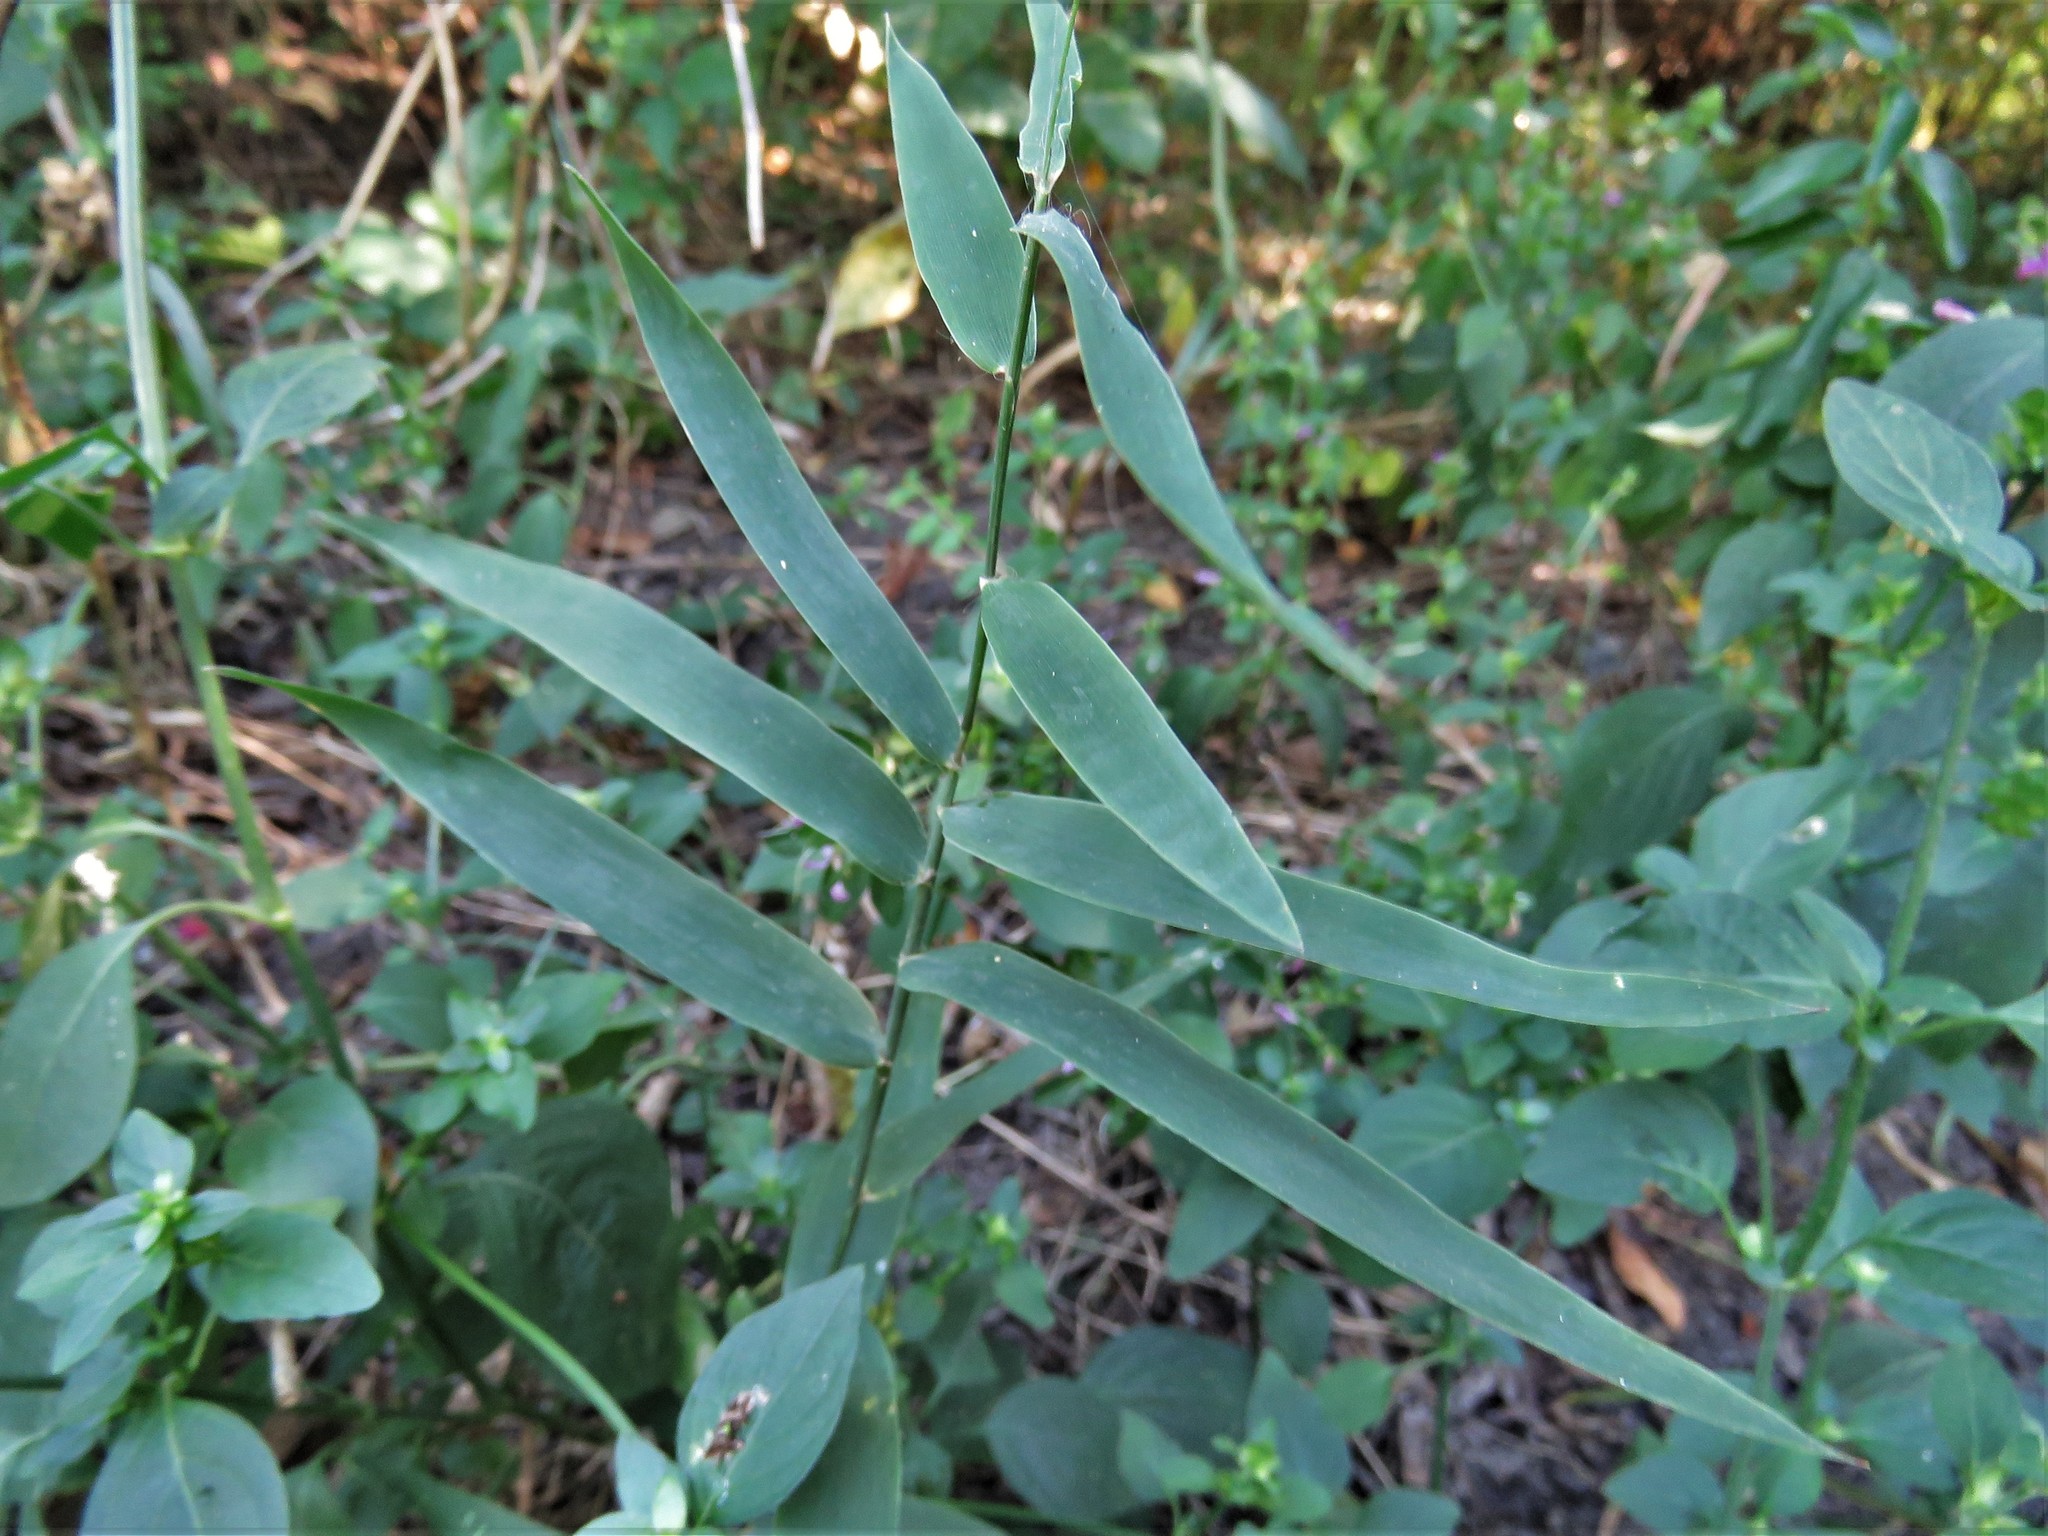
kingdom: Plantae
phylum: Tracheophyta
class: Liliopsida
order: Poales
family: Poaceae
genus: Chasmanthium
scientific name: Chasmanthium latifolium
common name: Broad-leaved chasmanthium
